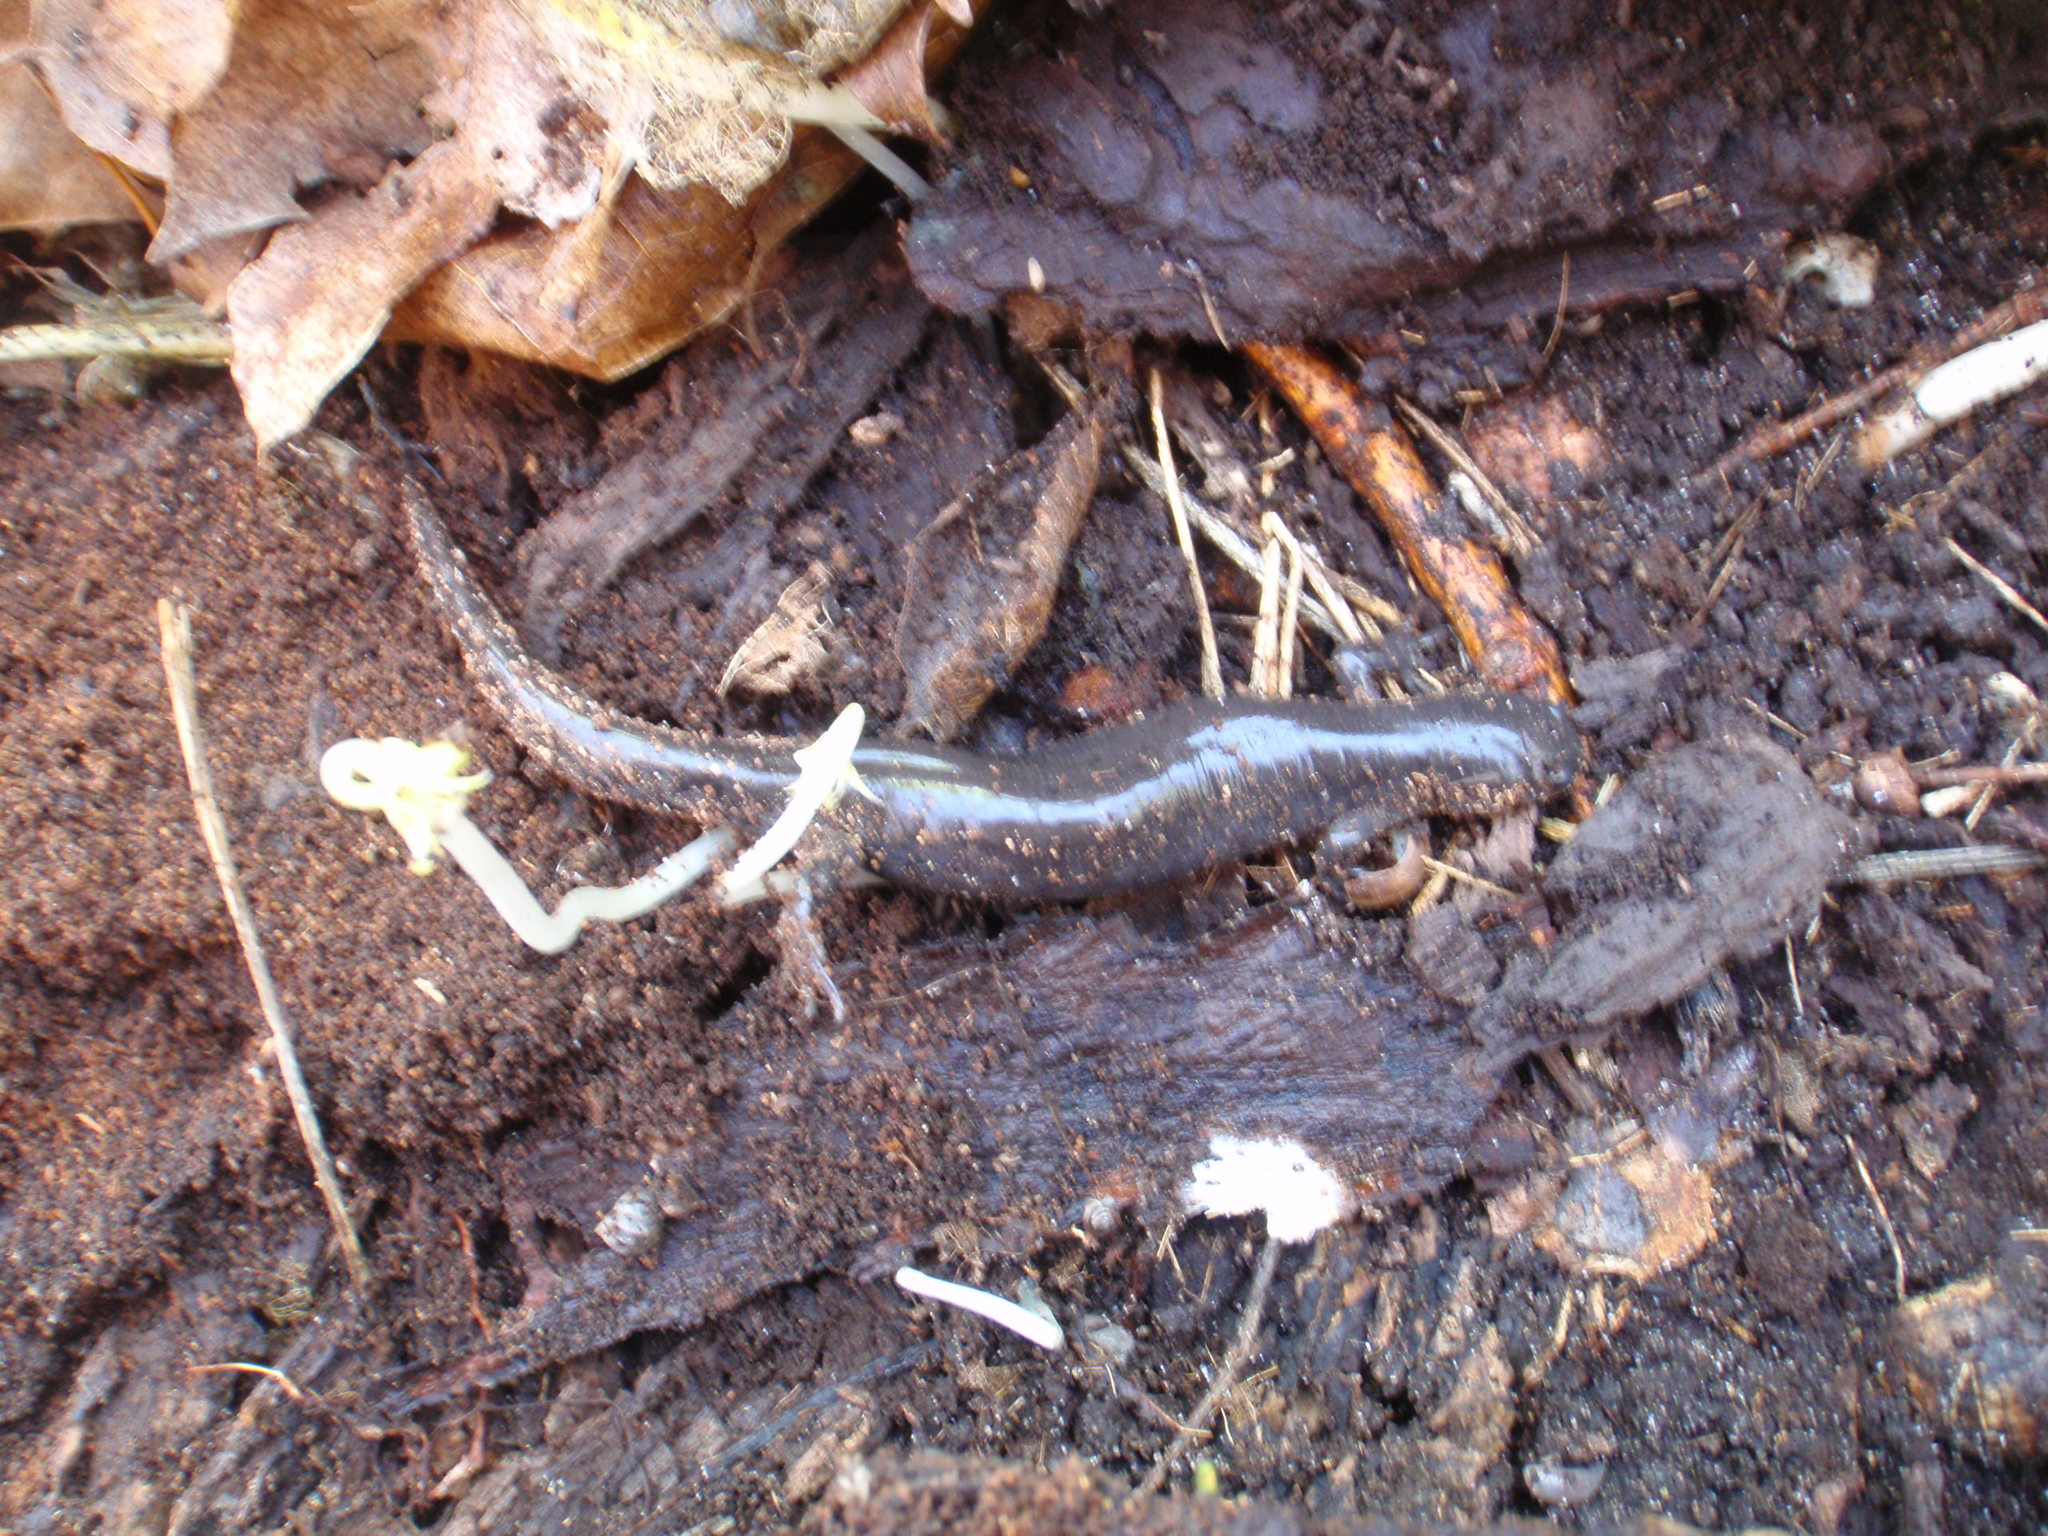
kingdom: Animalia
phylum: Chordata
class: Amphibia
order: Caudata
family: Ambystomatidae
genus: Ambystoma
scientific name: Ambystoma unisexual
